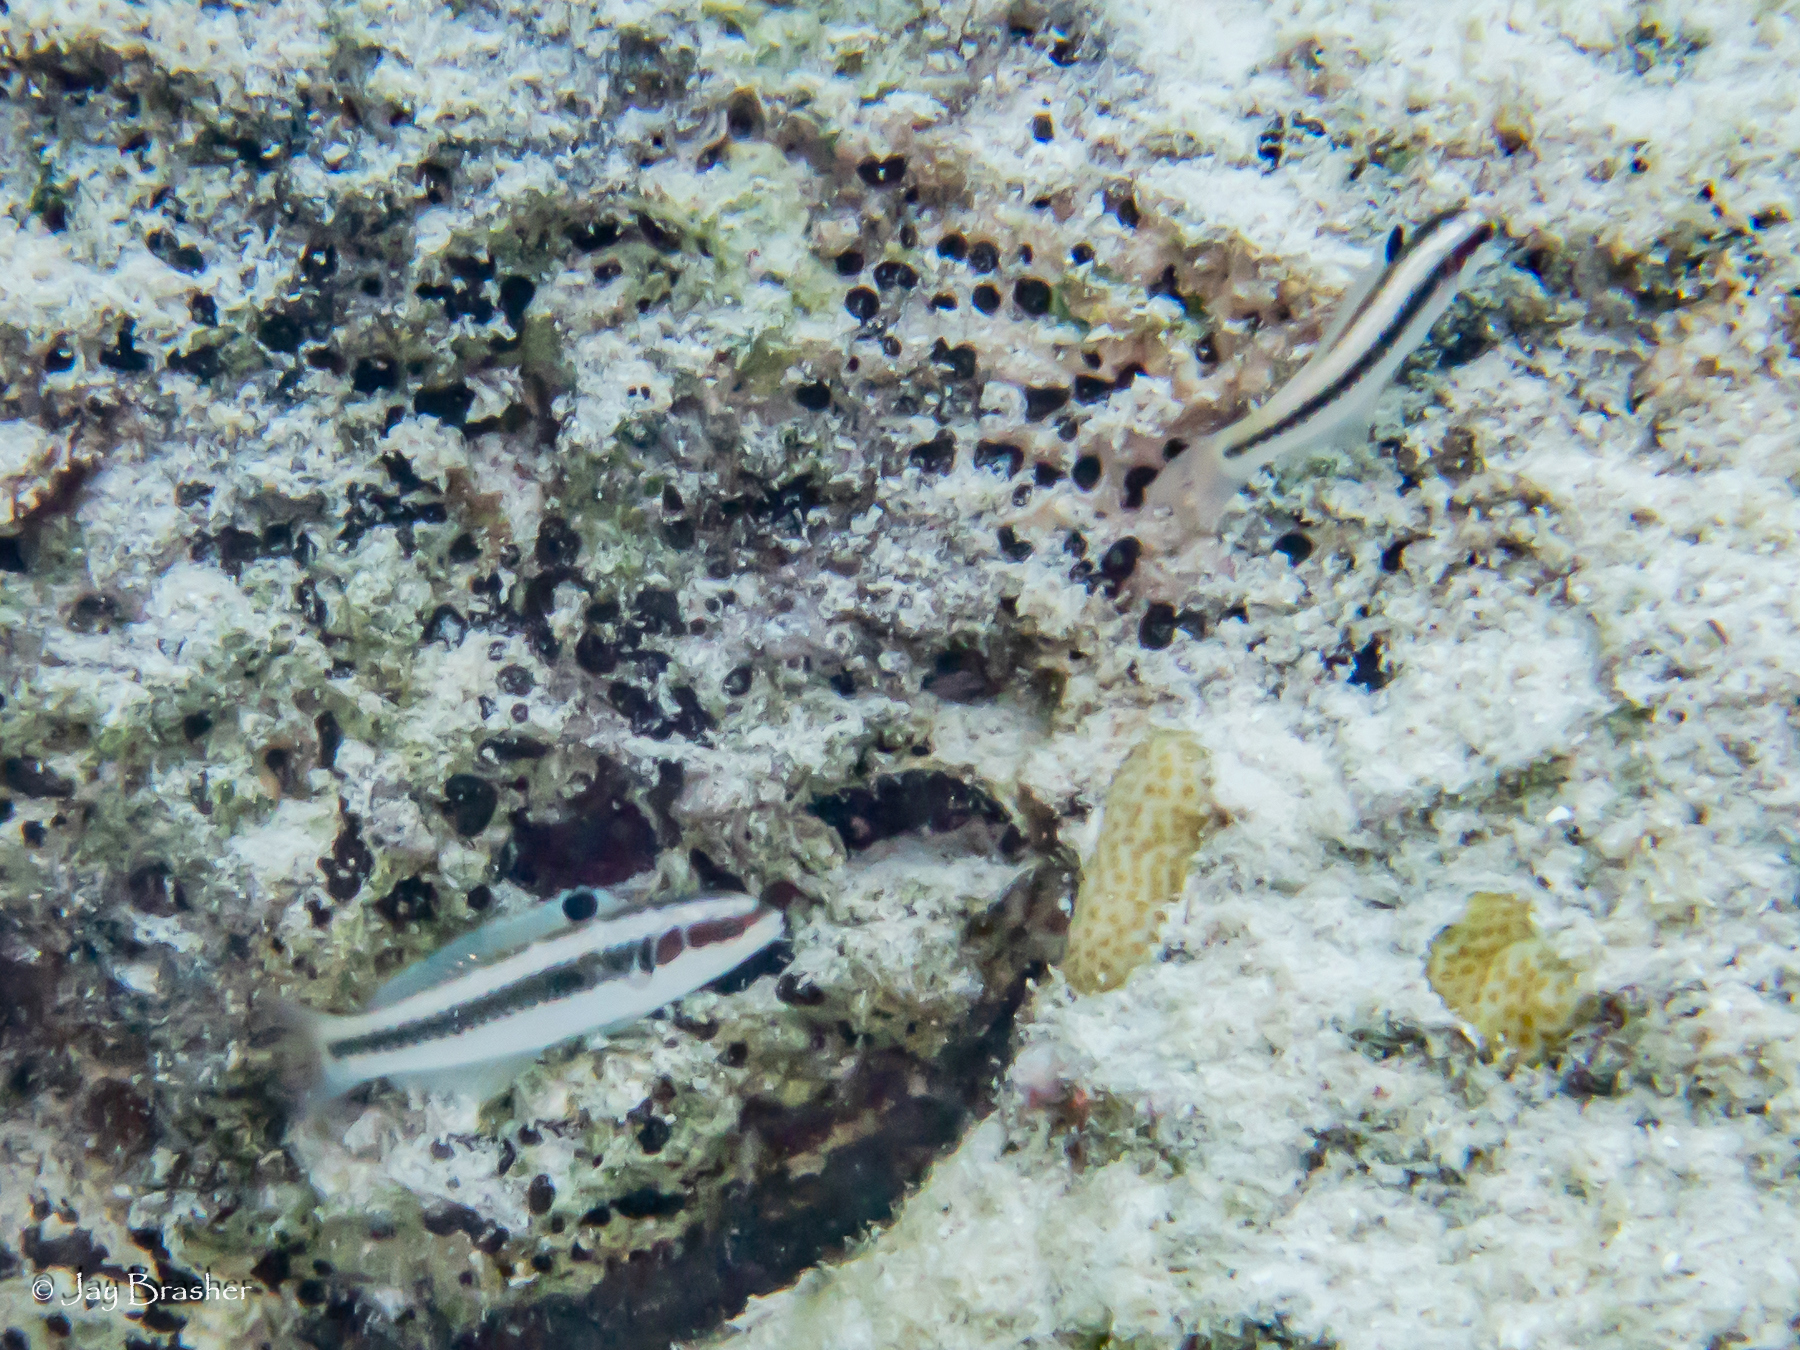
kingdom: Animalia
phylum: Chordata
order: Perciformes
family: Labridae
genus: Thalassoma
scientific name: Thalassoma bifasciatum
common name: Bluehead wrasse
